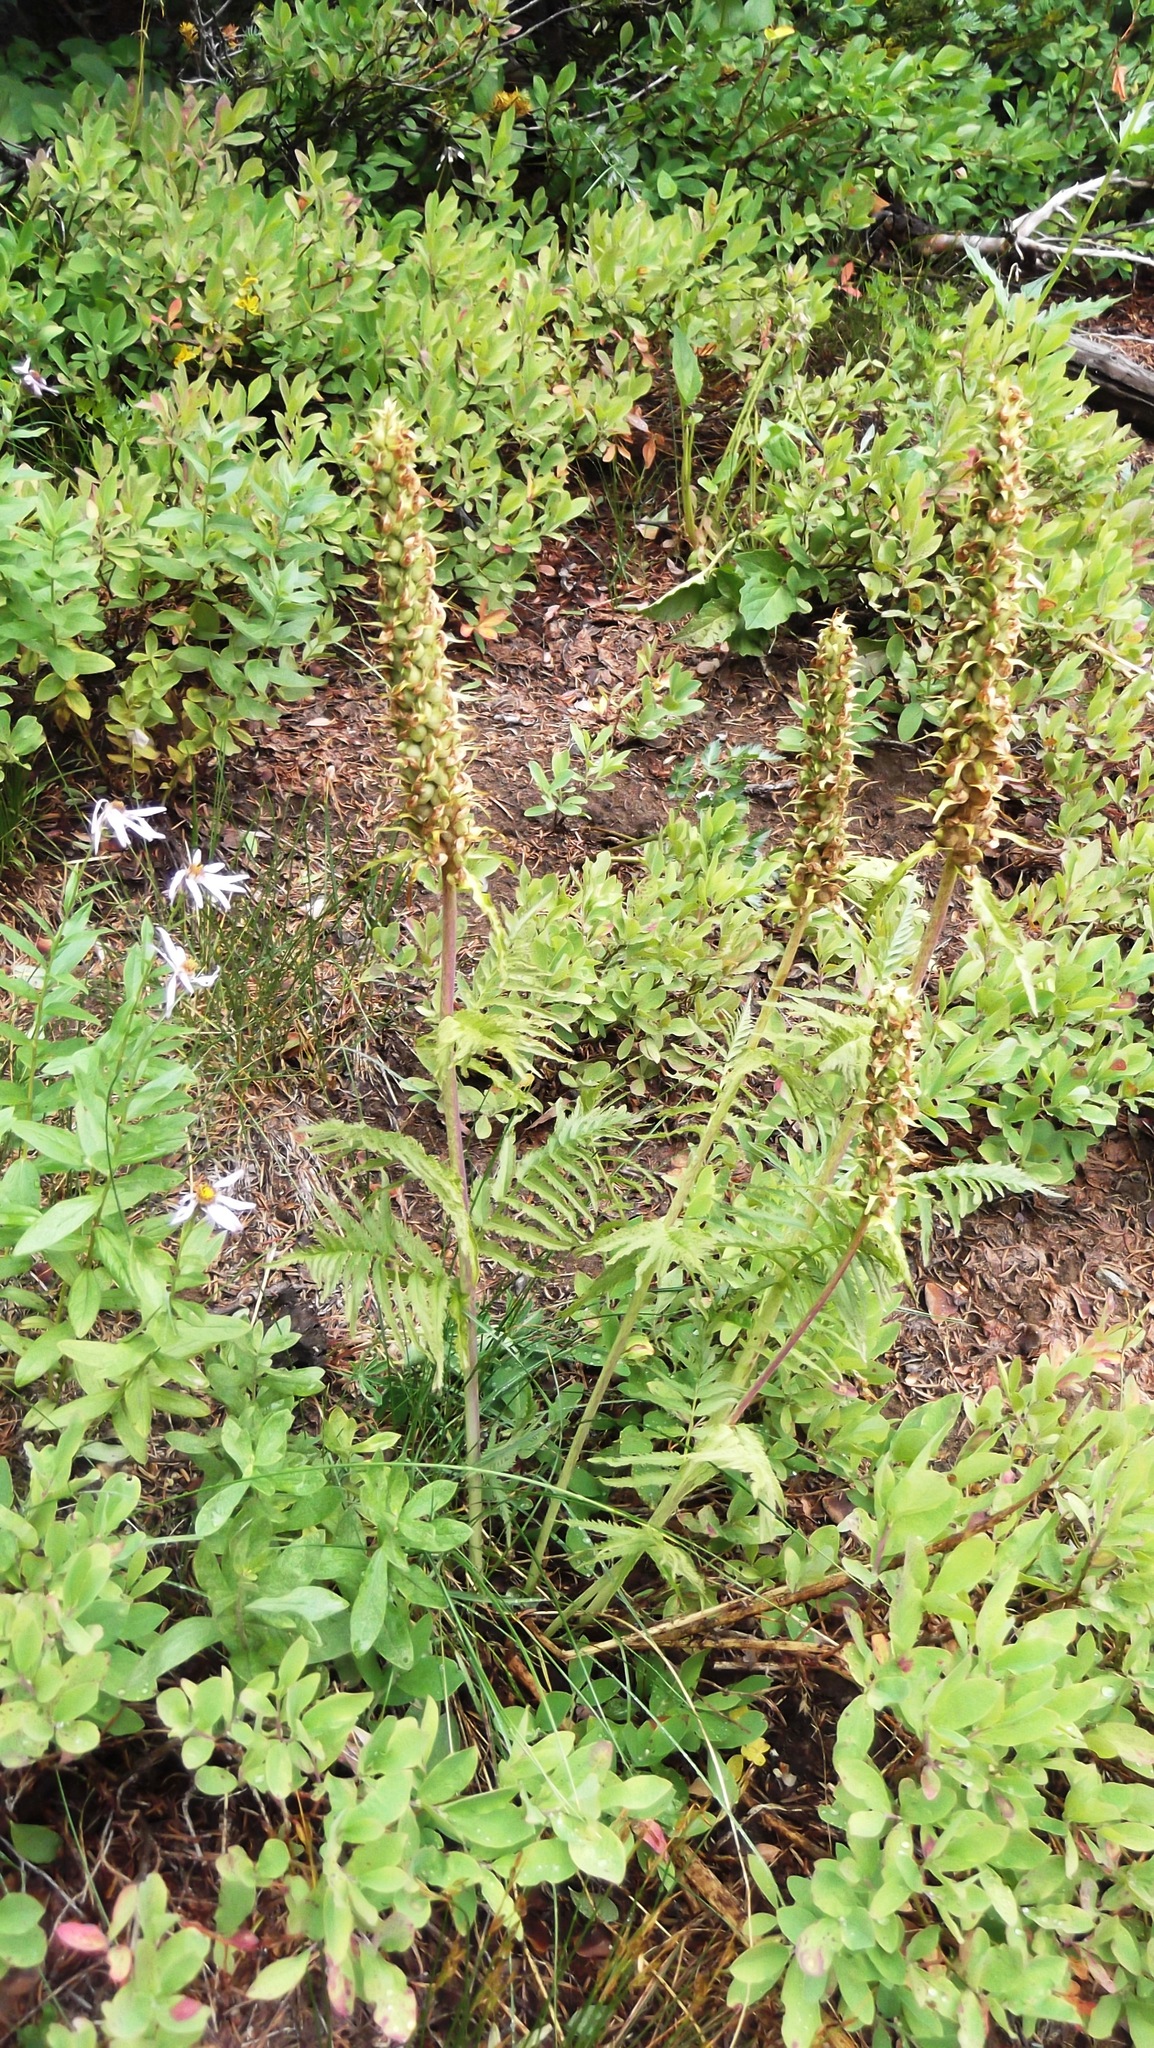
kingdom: Plantae
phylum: Tracheophyta
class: Magnoliopsida
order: Lamiales
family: Orobanchaceae
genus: Pedicularis
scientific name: Pedicularis bracteosa
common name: Bracted lousewort
